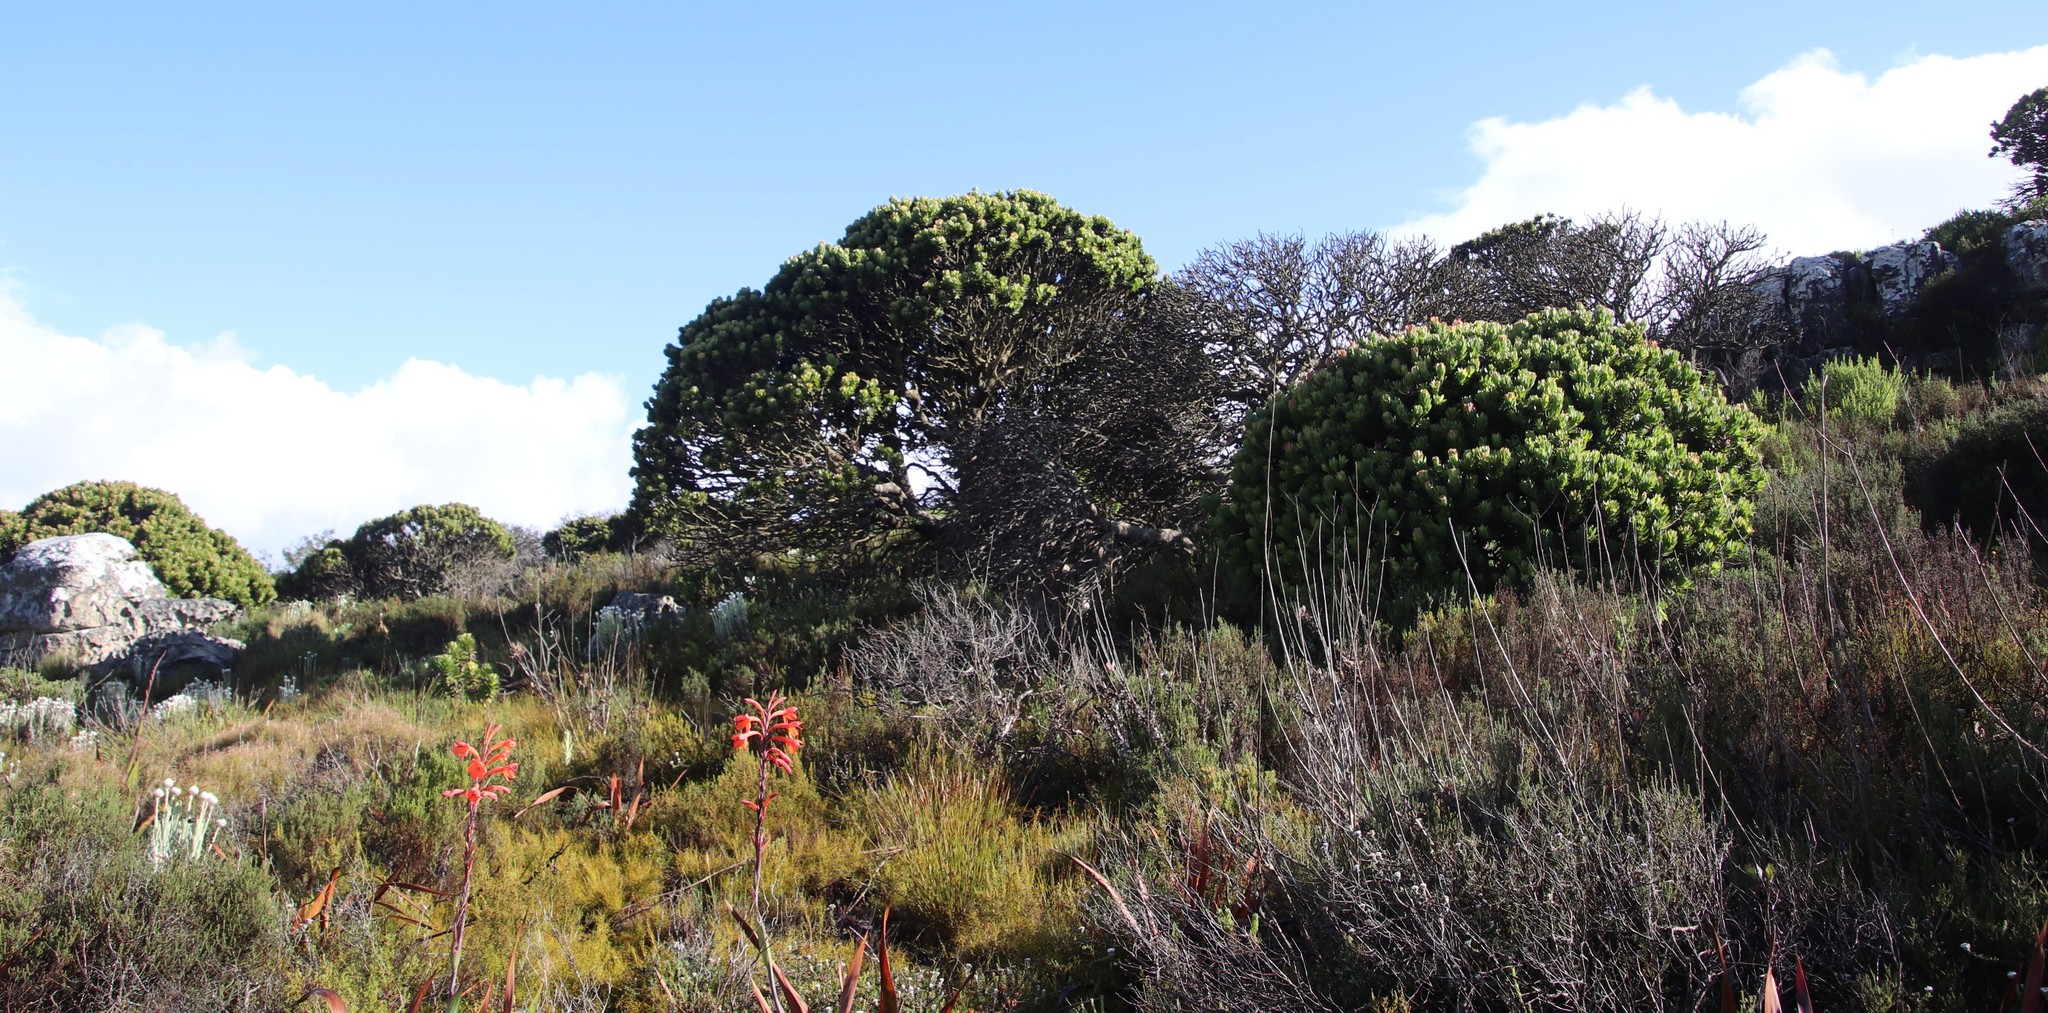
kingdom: Plantae
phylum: Tracheophyta
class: Magnoliopsida
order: Proteales
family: Proteaceae
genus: Mimetes
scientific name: Mimetes fimbriifolius
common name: Fringed bottlebrush
